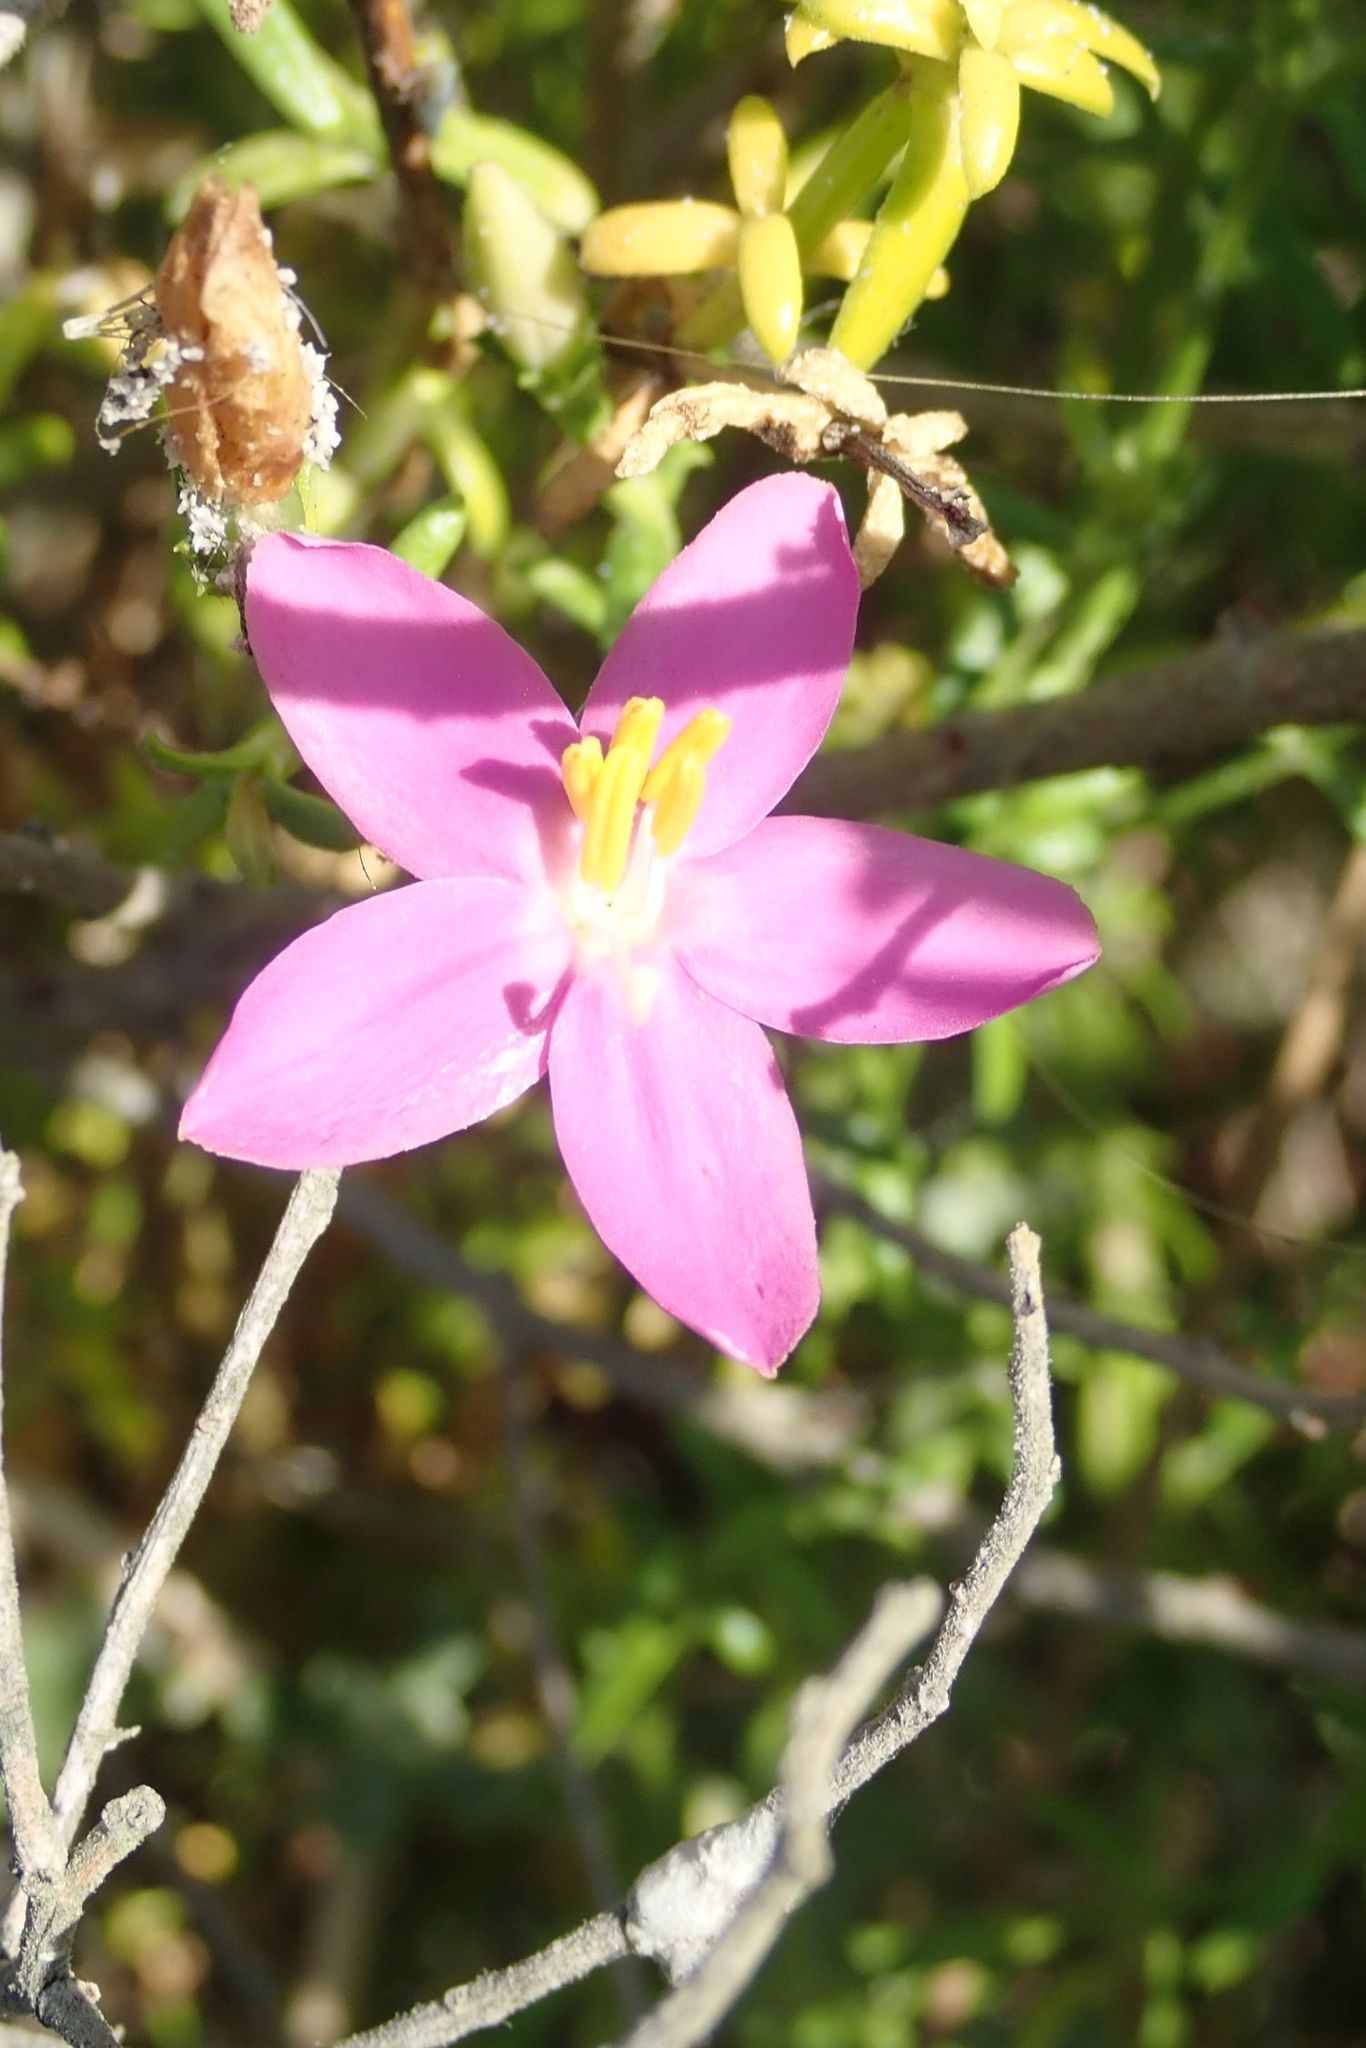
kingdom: Plantae
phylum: Tracheophyta
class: Magnoliopsida
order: Gentianales
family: Gentianaceae
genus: Chironia
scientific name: Chironia baccifera
